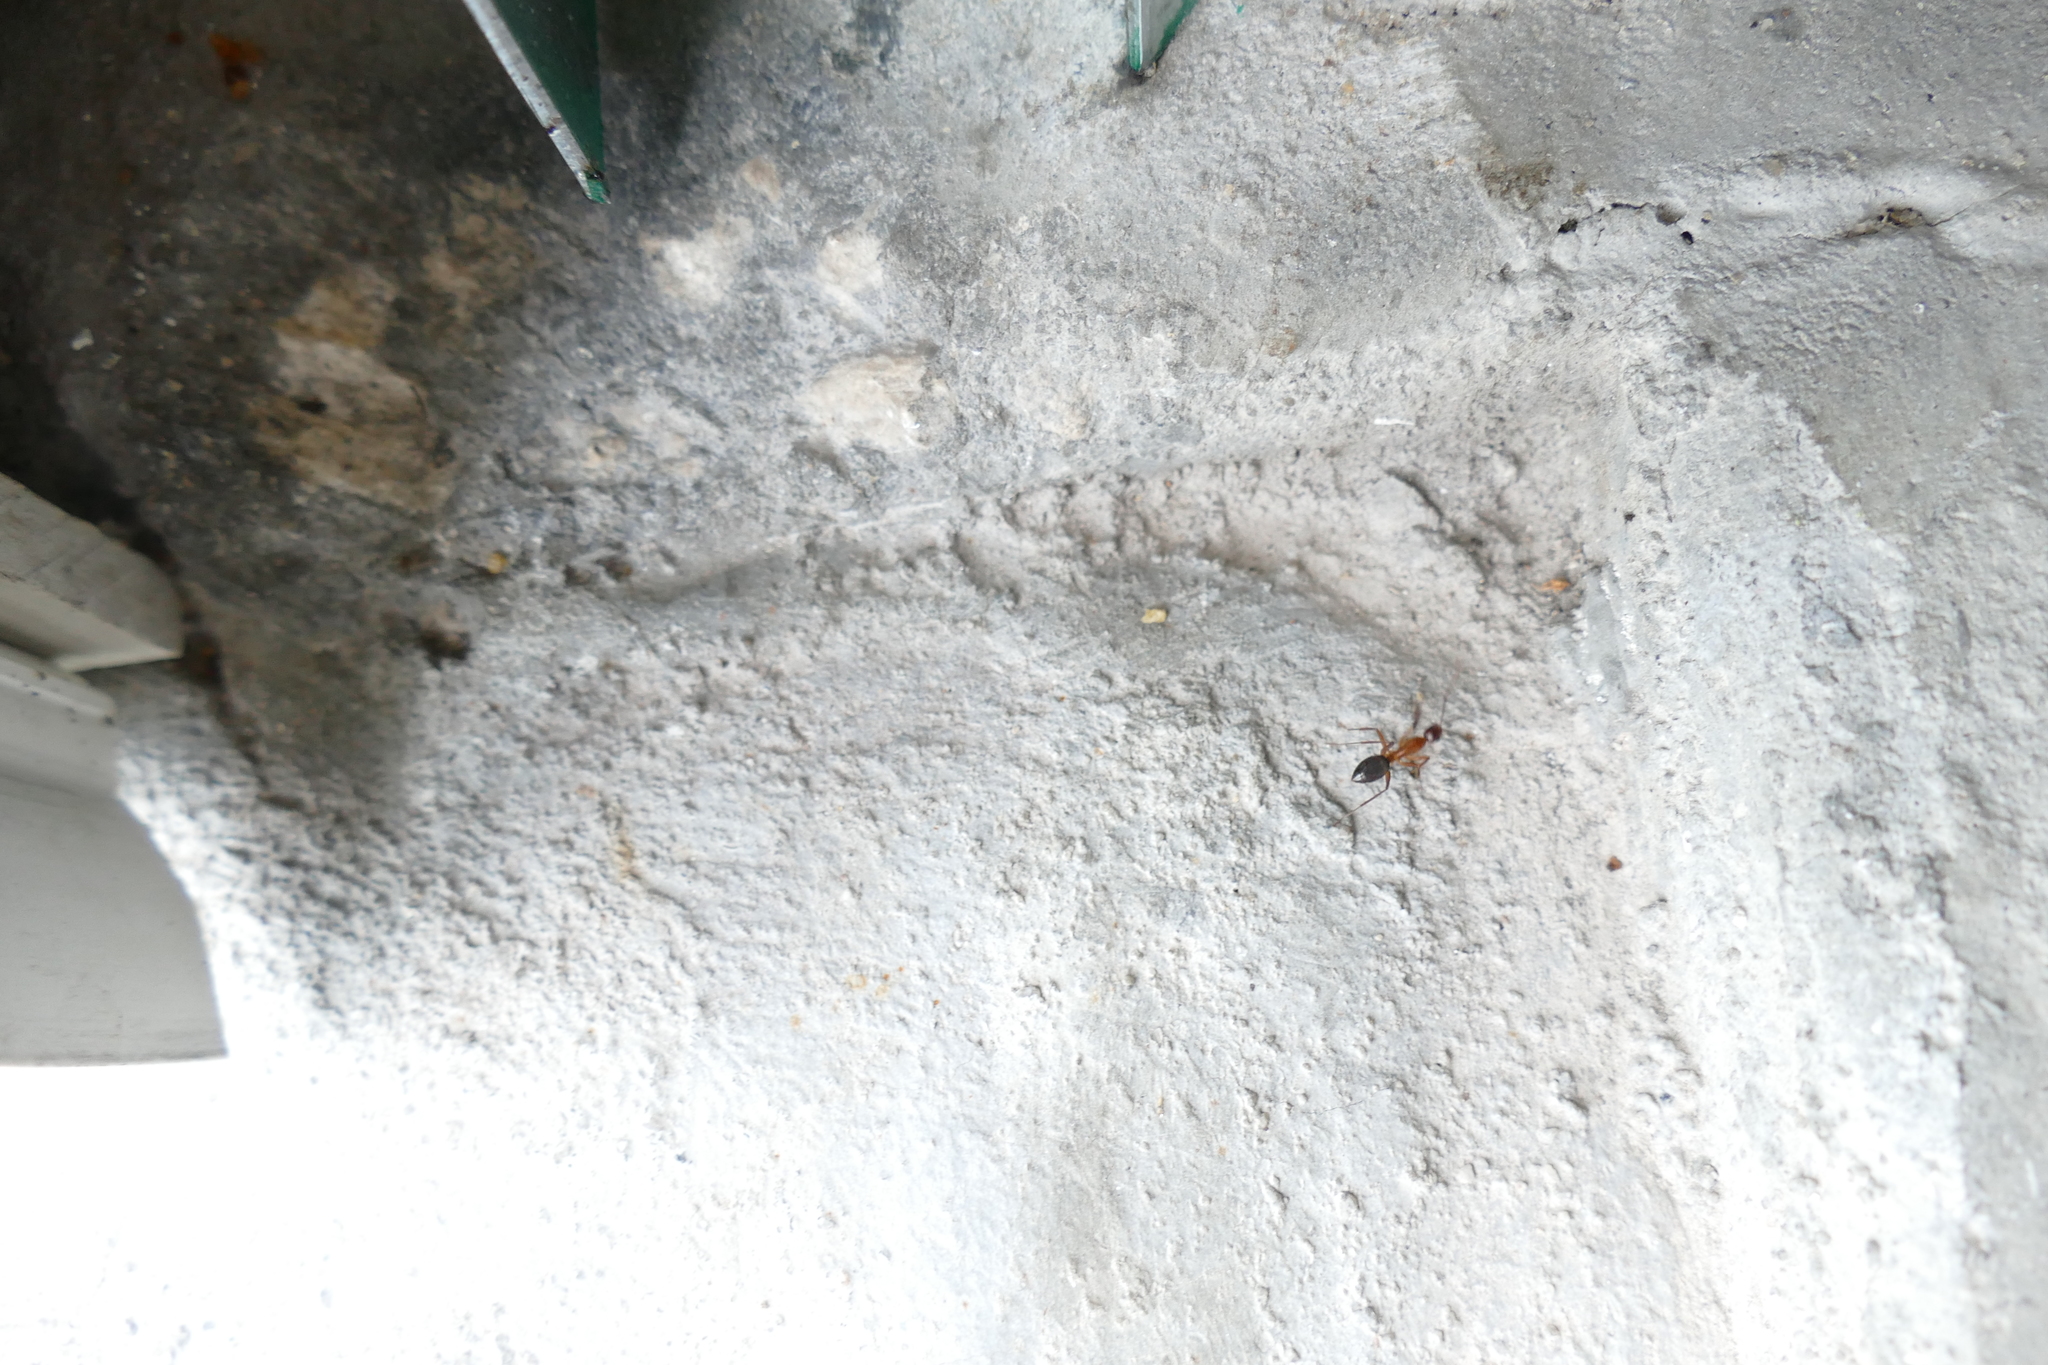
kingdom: Animalia
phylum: Arthropoda
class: Insecta
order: Hymenoptera
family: Formicidae
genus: Camponotus
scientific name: Camponotus inaequalis
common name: Ant
